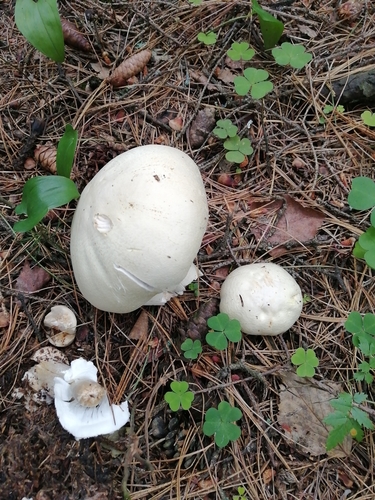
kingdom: Fungi
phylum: Basidiomycota
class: Agaricomycetes
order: Agaricales
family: Agaricaceae
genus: Agaricus
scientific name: Agaricus campestris
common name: Field mushroom
